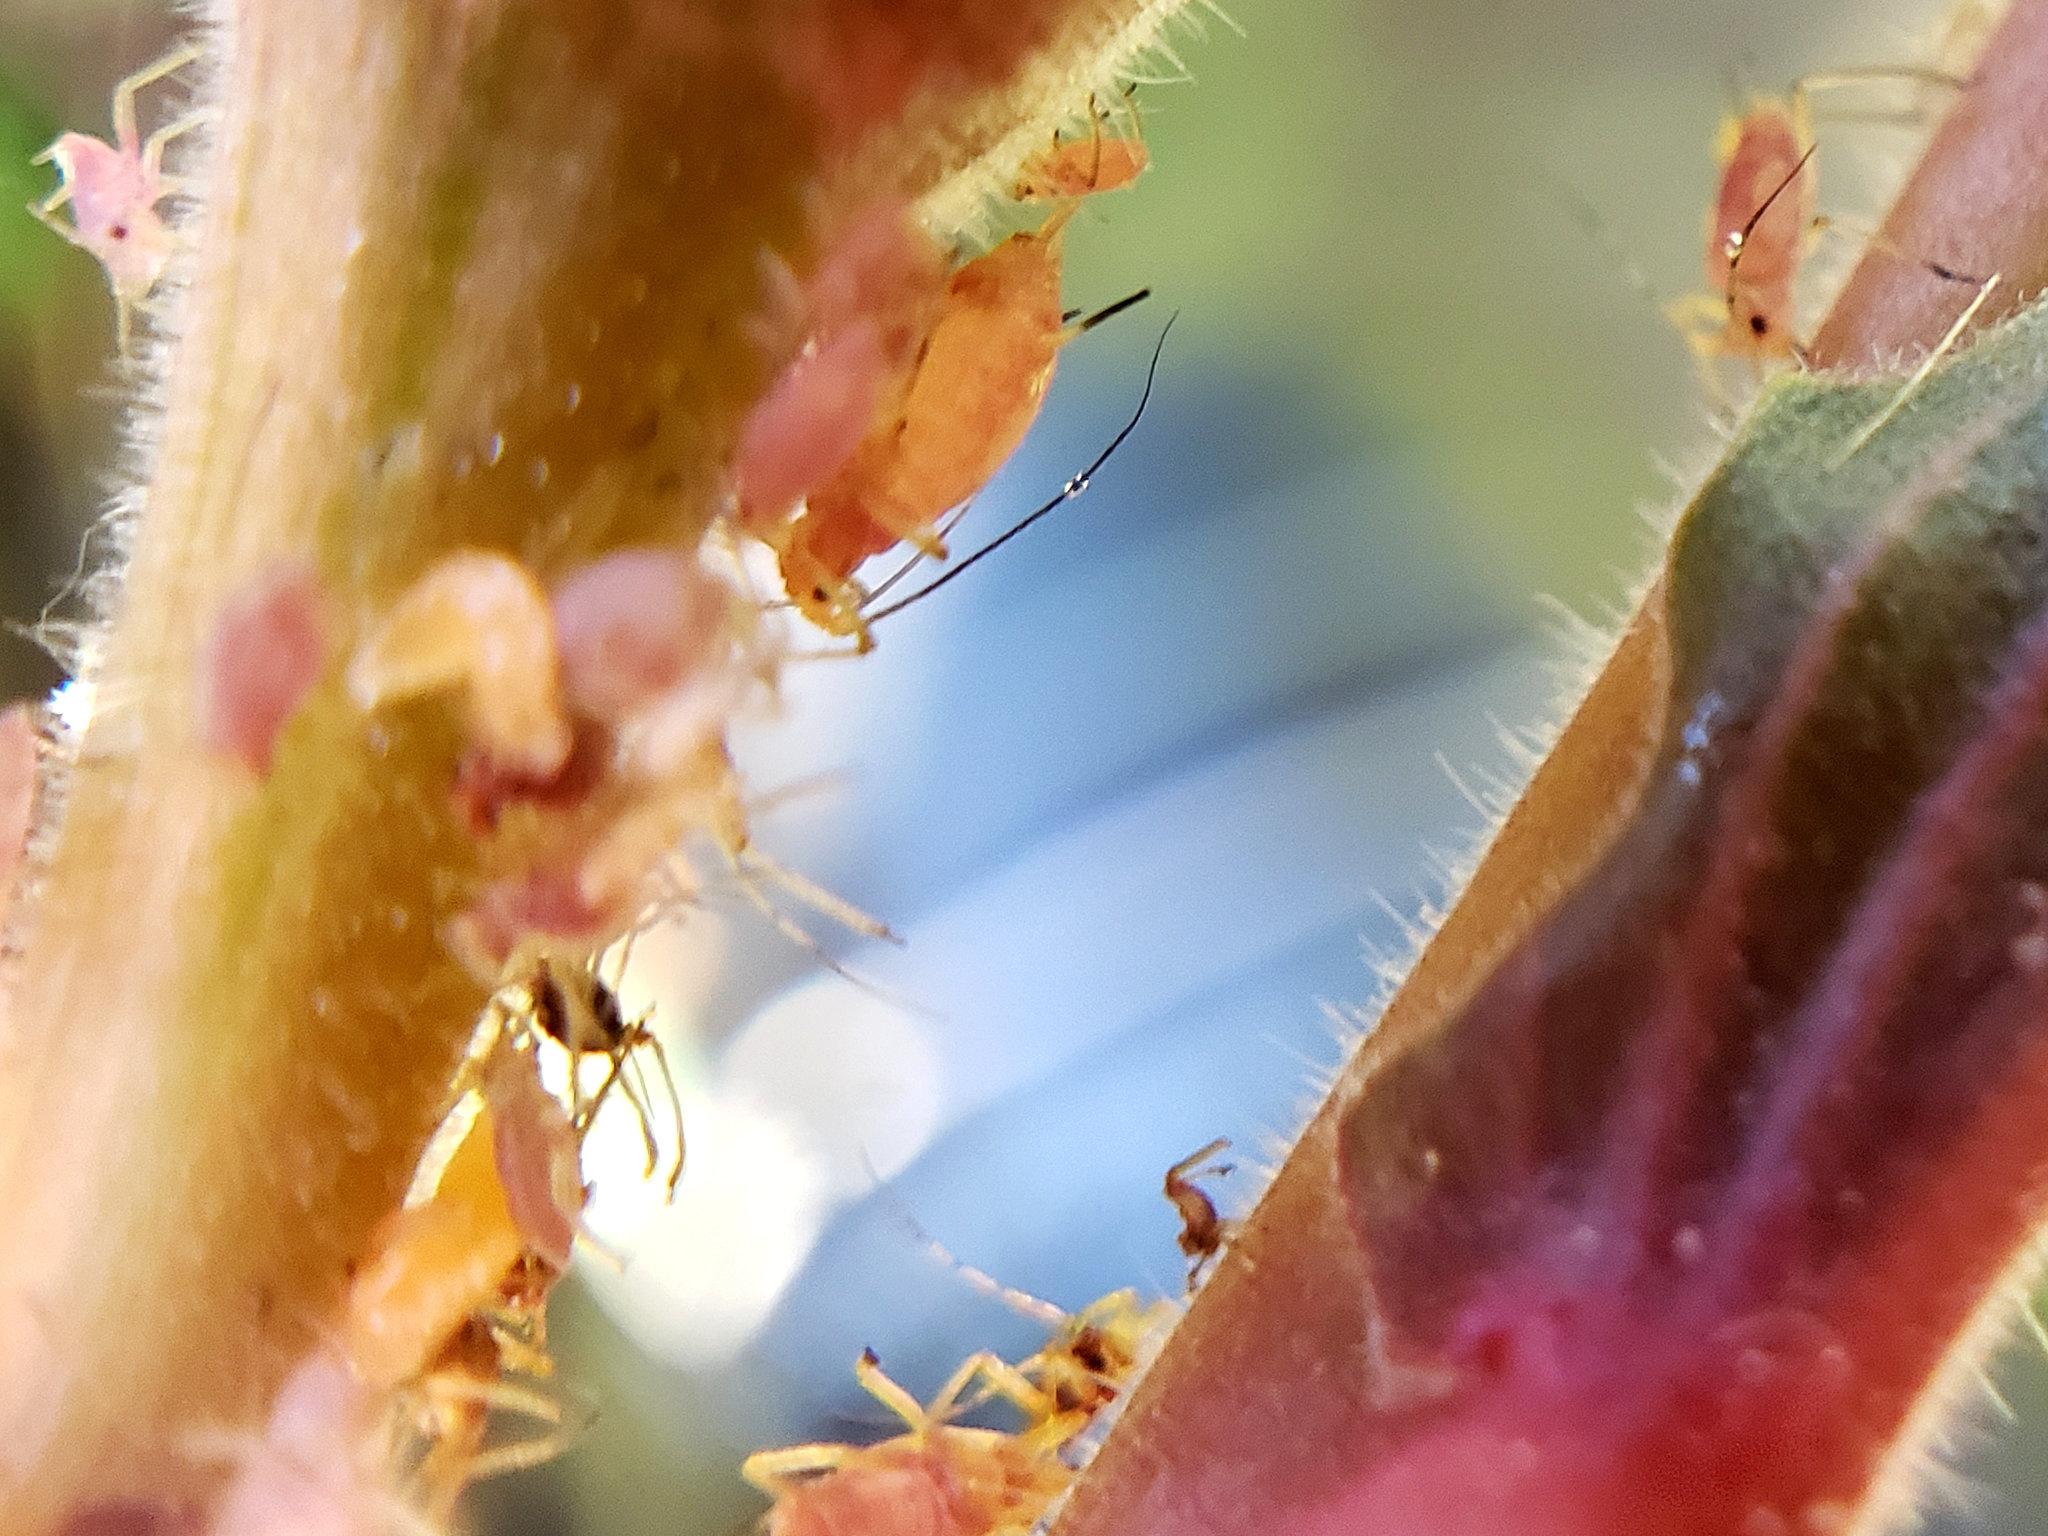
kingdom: Animalia
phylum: Arthropoda
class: Insecta
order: Hemiptera
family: Aphididae
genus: Macrosiphum
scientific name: Macrosiphum gaurae
